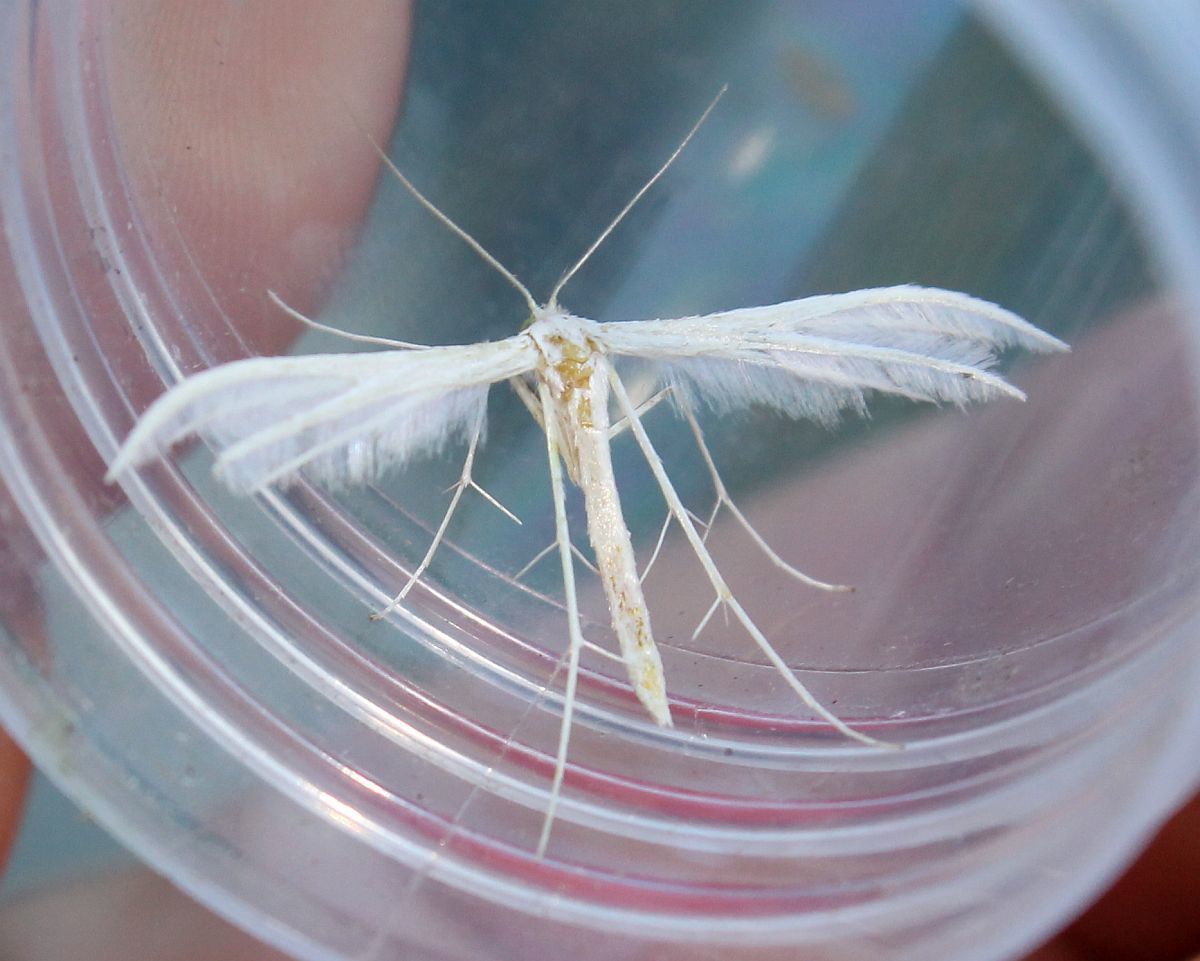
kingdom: Animalia
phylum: Arthropoda
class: Insecta
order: Lepidoptera
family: Pterophoridae
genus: Pterophorus
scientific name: Pterophorus pentadactyla
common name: White plume moth
